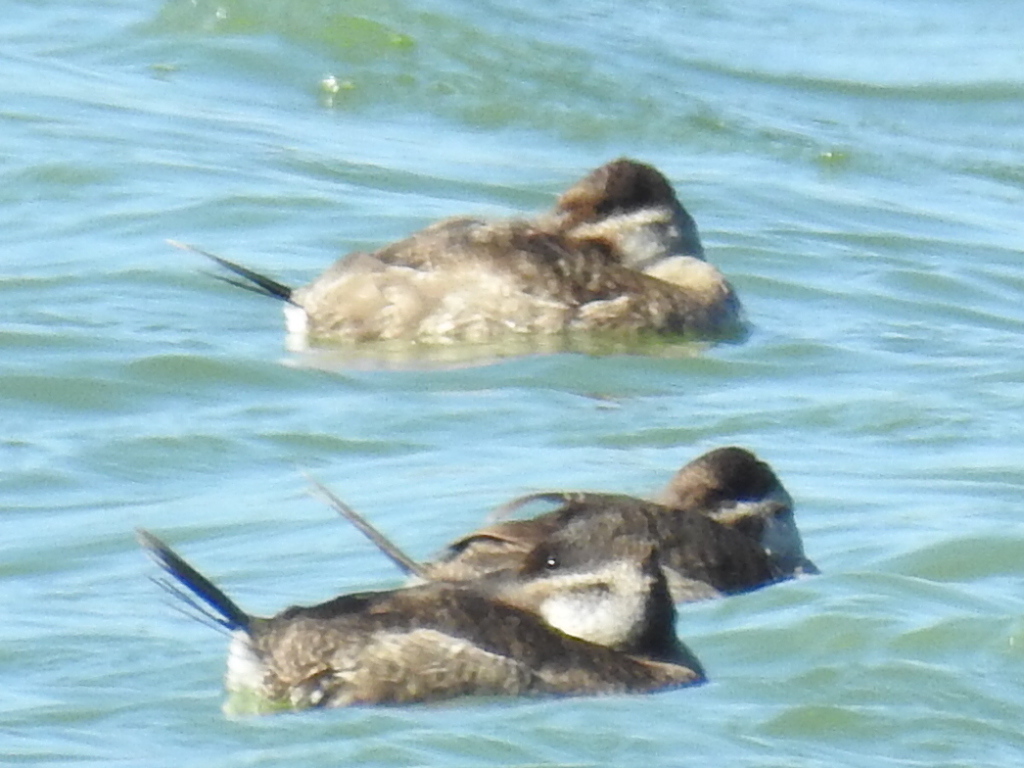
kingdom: Animalia
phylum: Chordata
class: Aves
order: Anseriformes
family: Anatidae
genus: Oxyura
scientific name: Oxyura jamaicensis
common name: Ruddy duck
